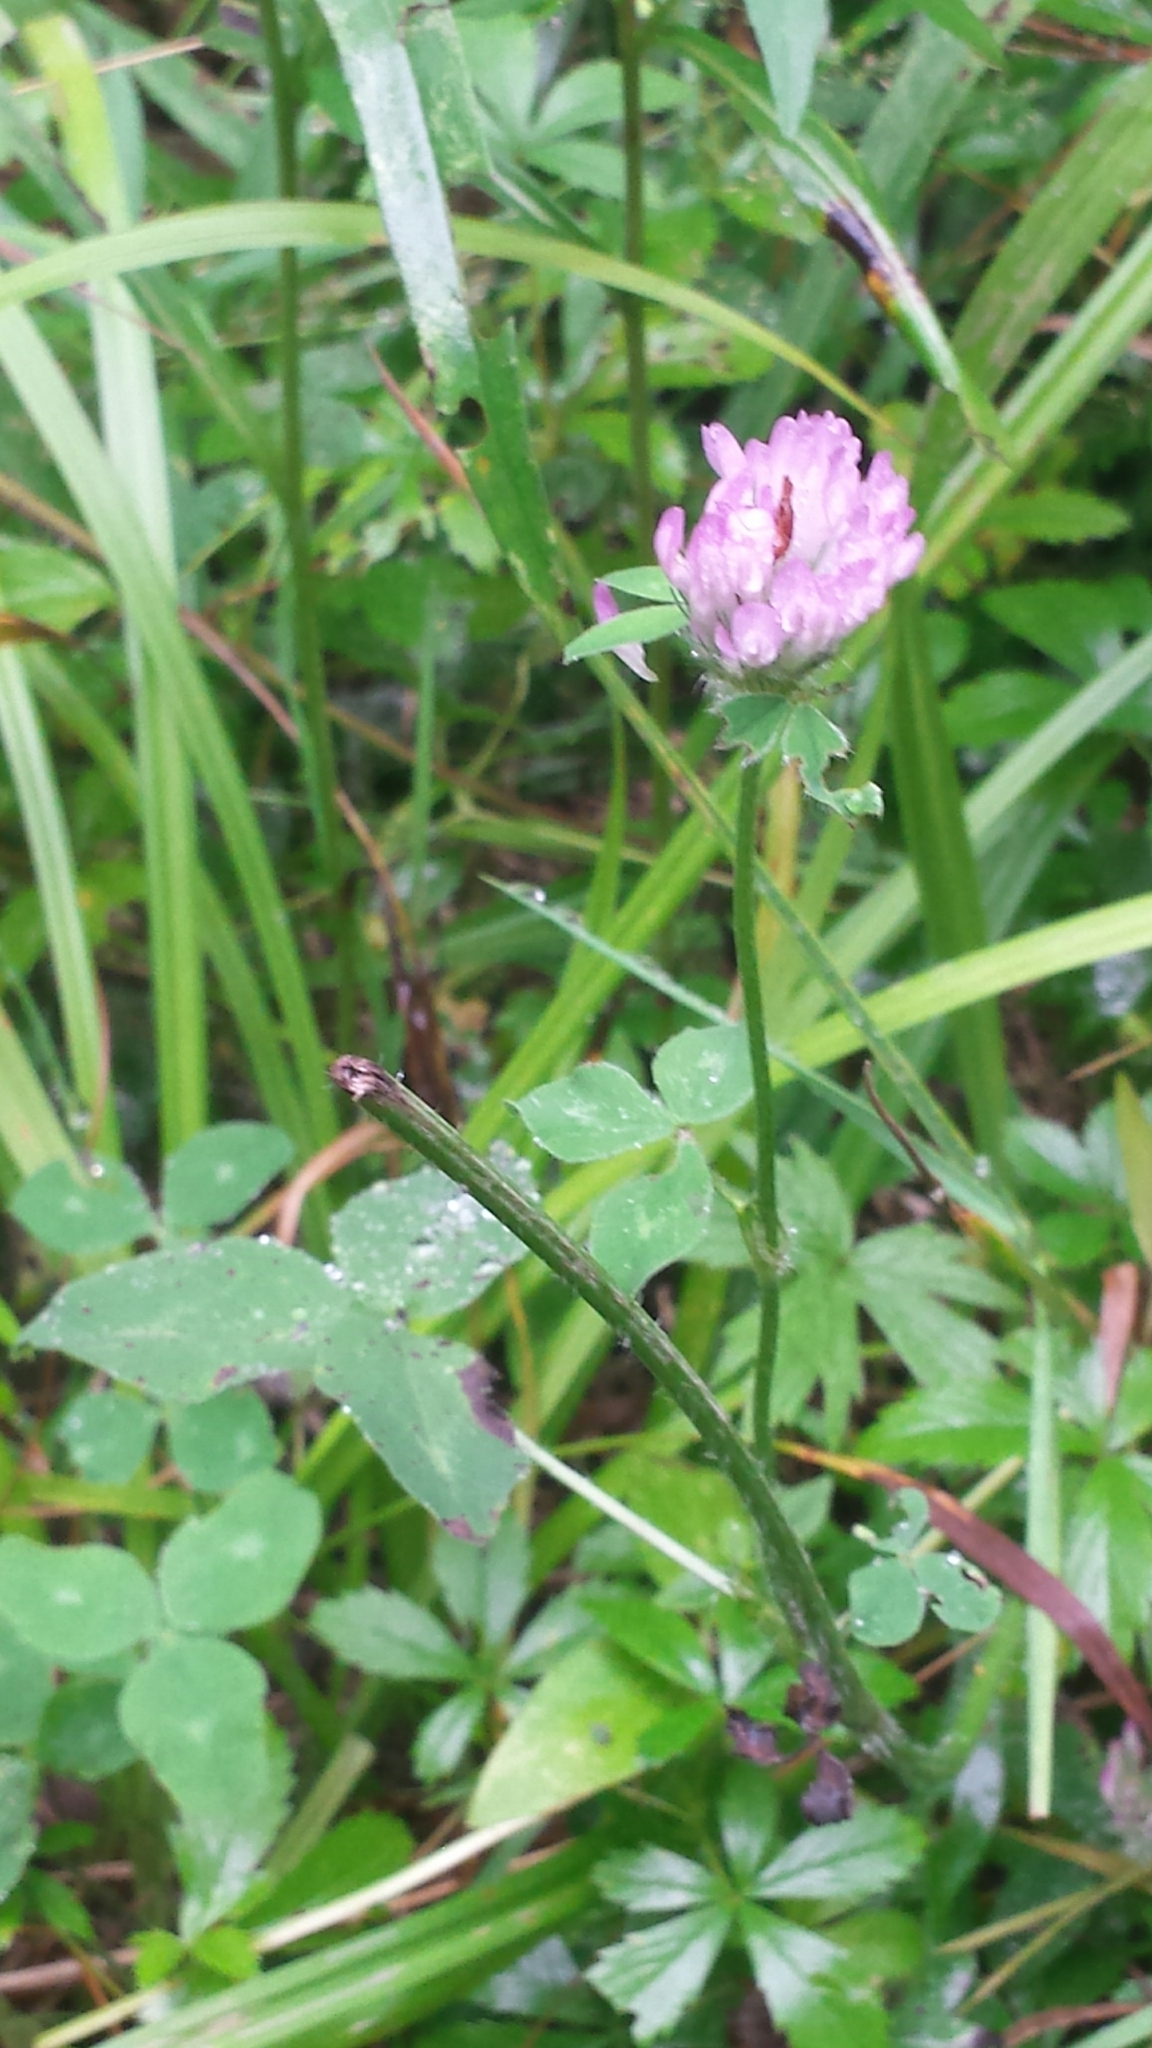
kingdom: Plantae
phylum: Tracheophyta
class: Magnoliopsida
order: Fabales
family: Fabaceae
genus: Trifolium
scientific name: Trifolium pratense
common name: Red clover
